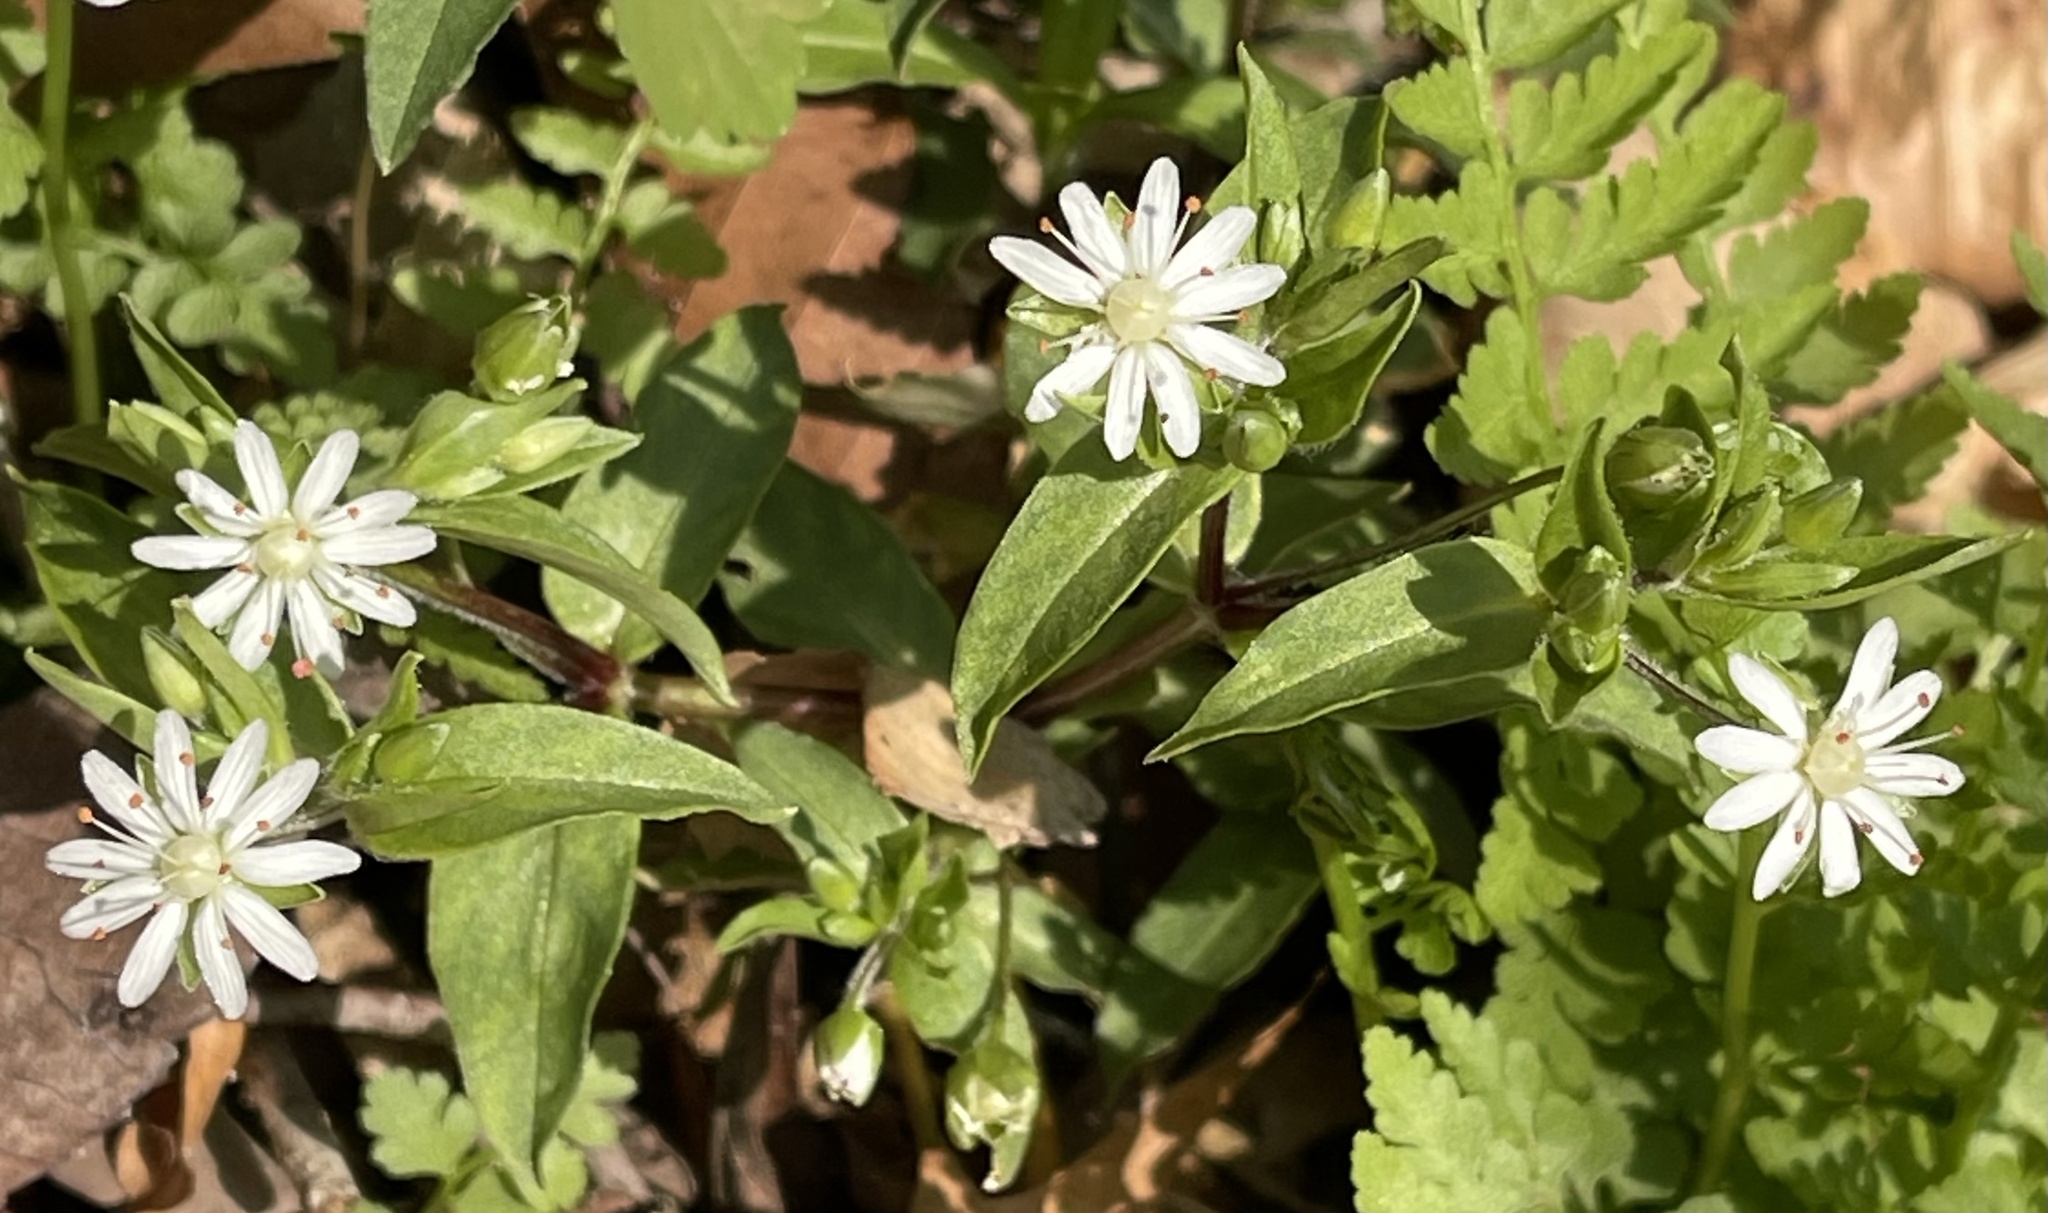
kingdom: Plantae
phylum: Tracheophyta
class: Magnoliopsida
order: Caryophyllales
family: Caryophyllaceae
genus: Stellaria
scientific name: Stellaria pubera
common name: Star chickweed
